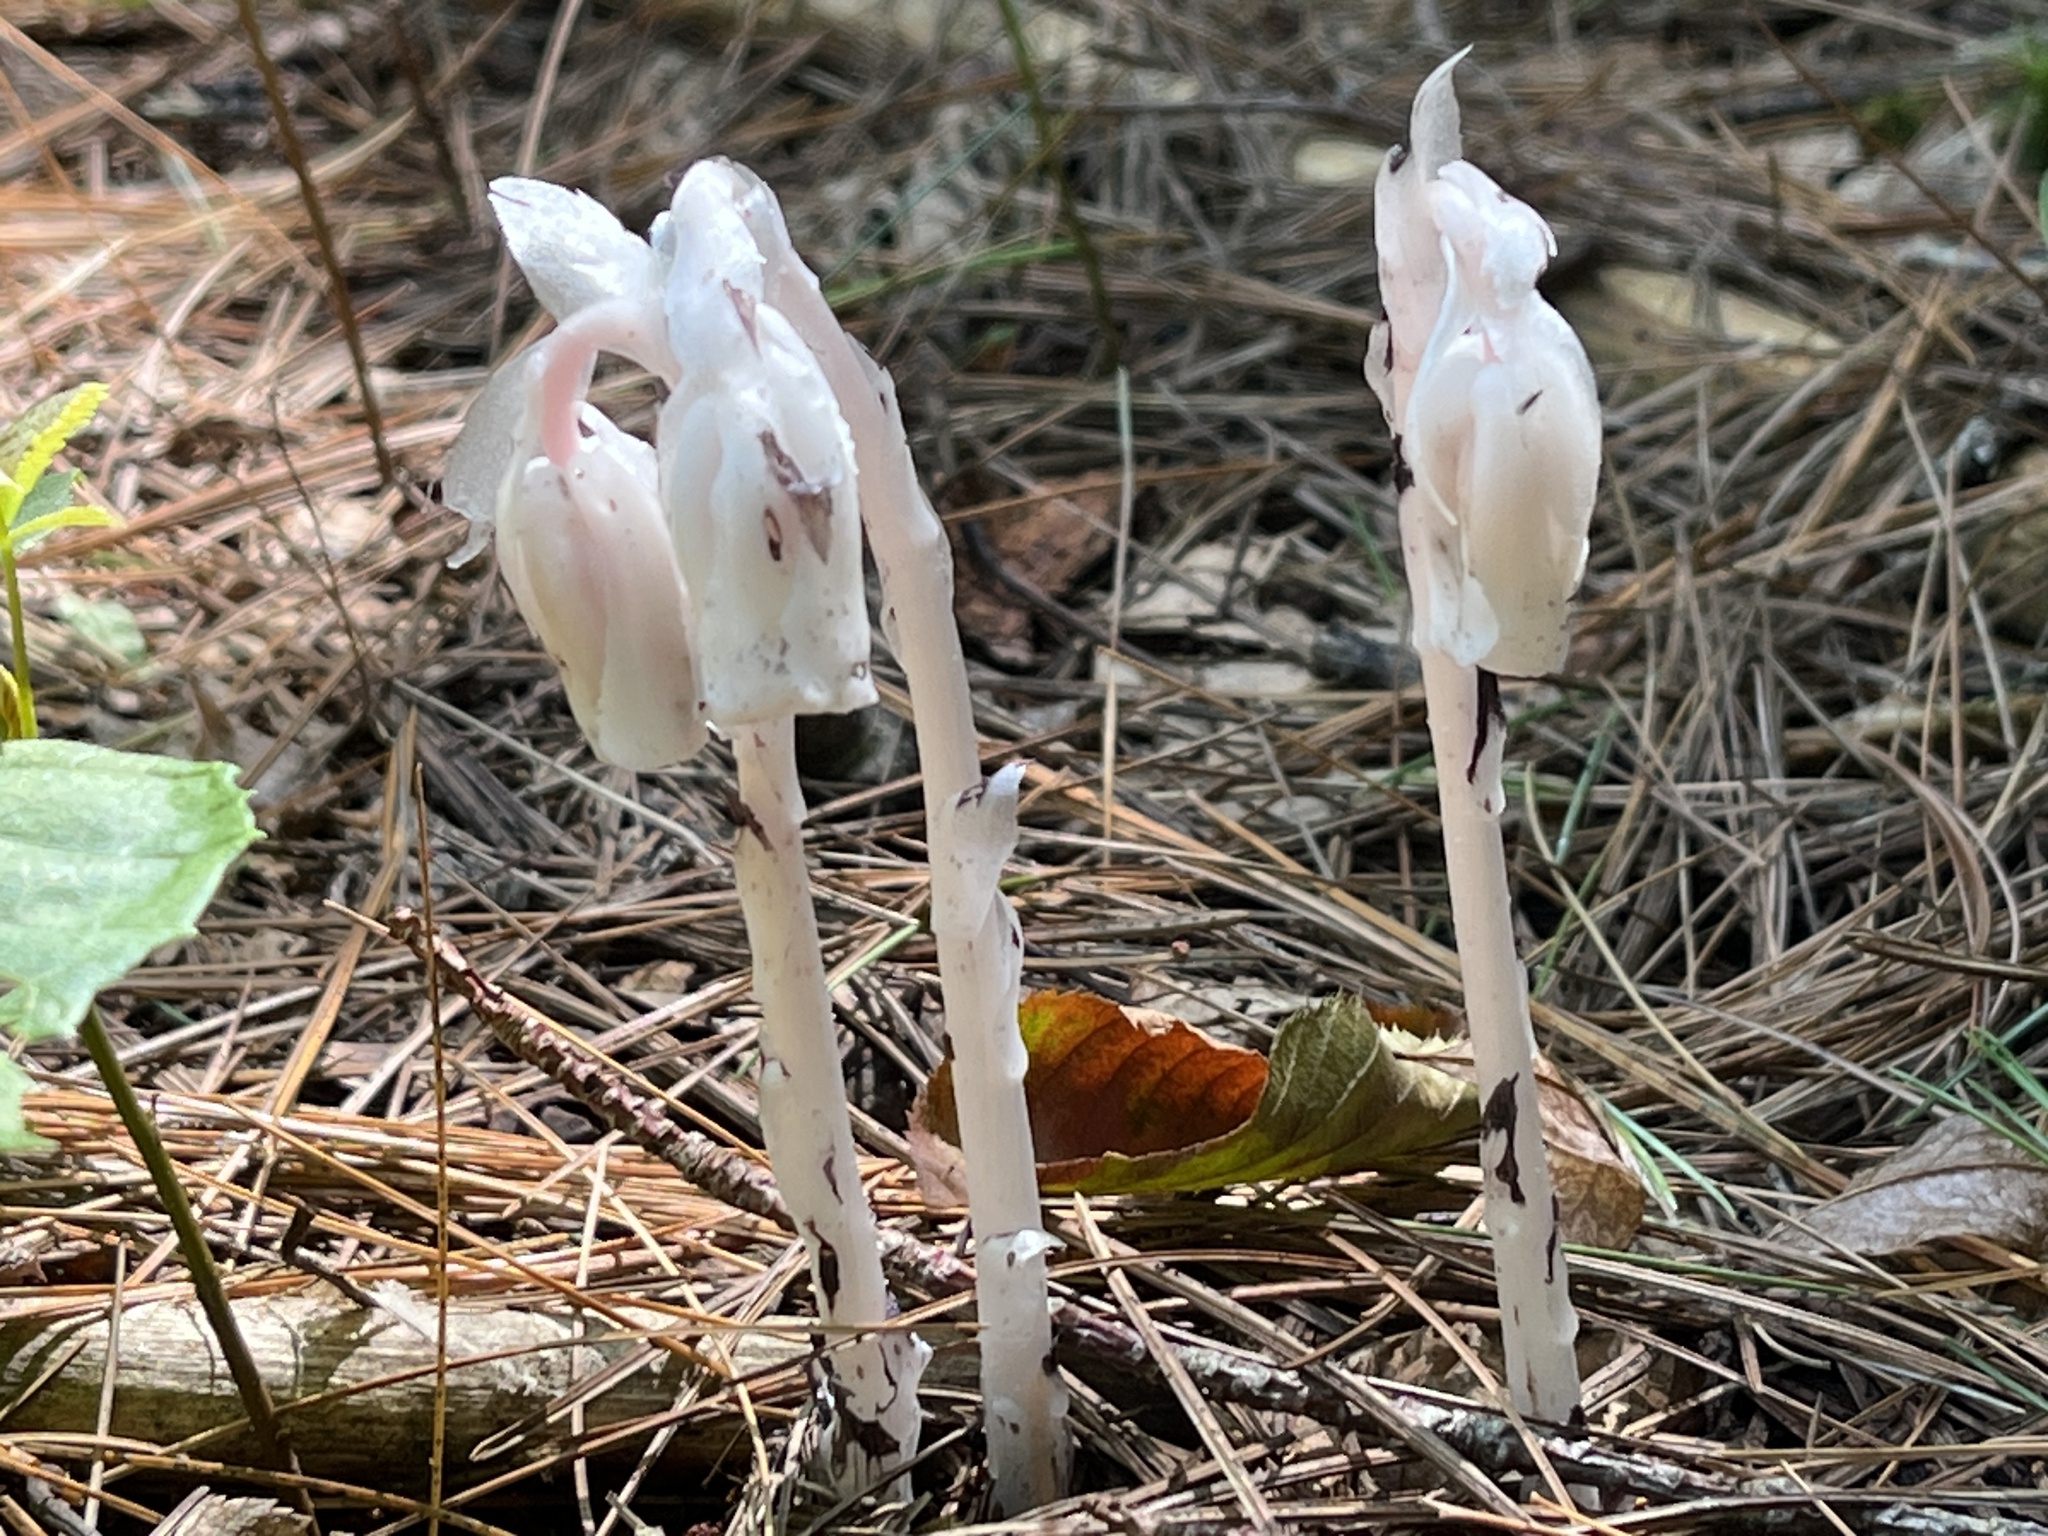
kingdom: Plantae
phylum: Tracheophyta
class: Magnoliopsida
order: Ericales
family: Ericaceae
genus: Monotropa
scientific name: Monotropa uniflora
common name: Convulsion root
